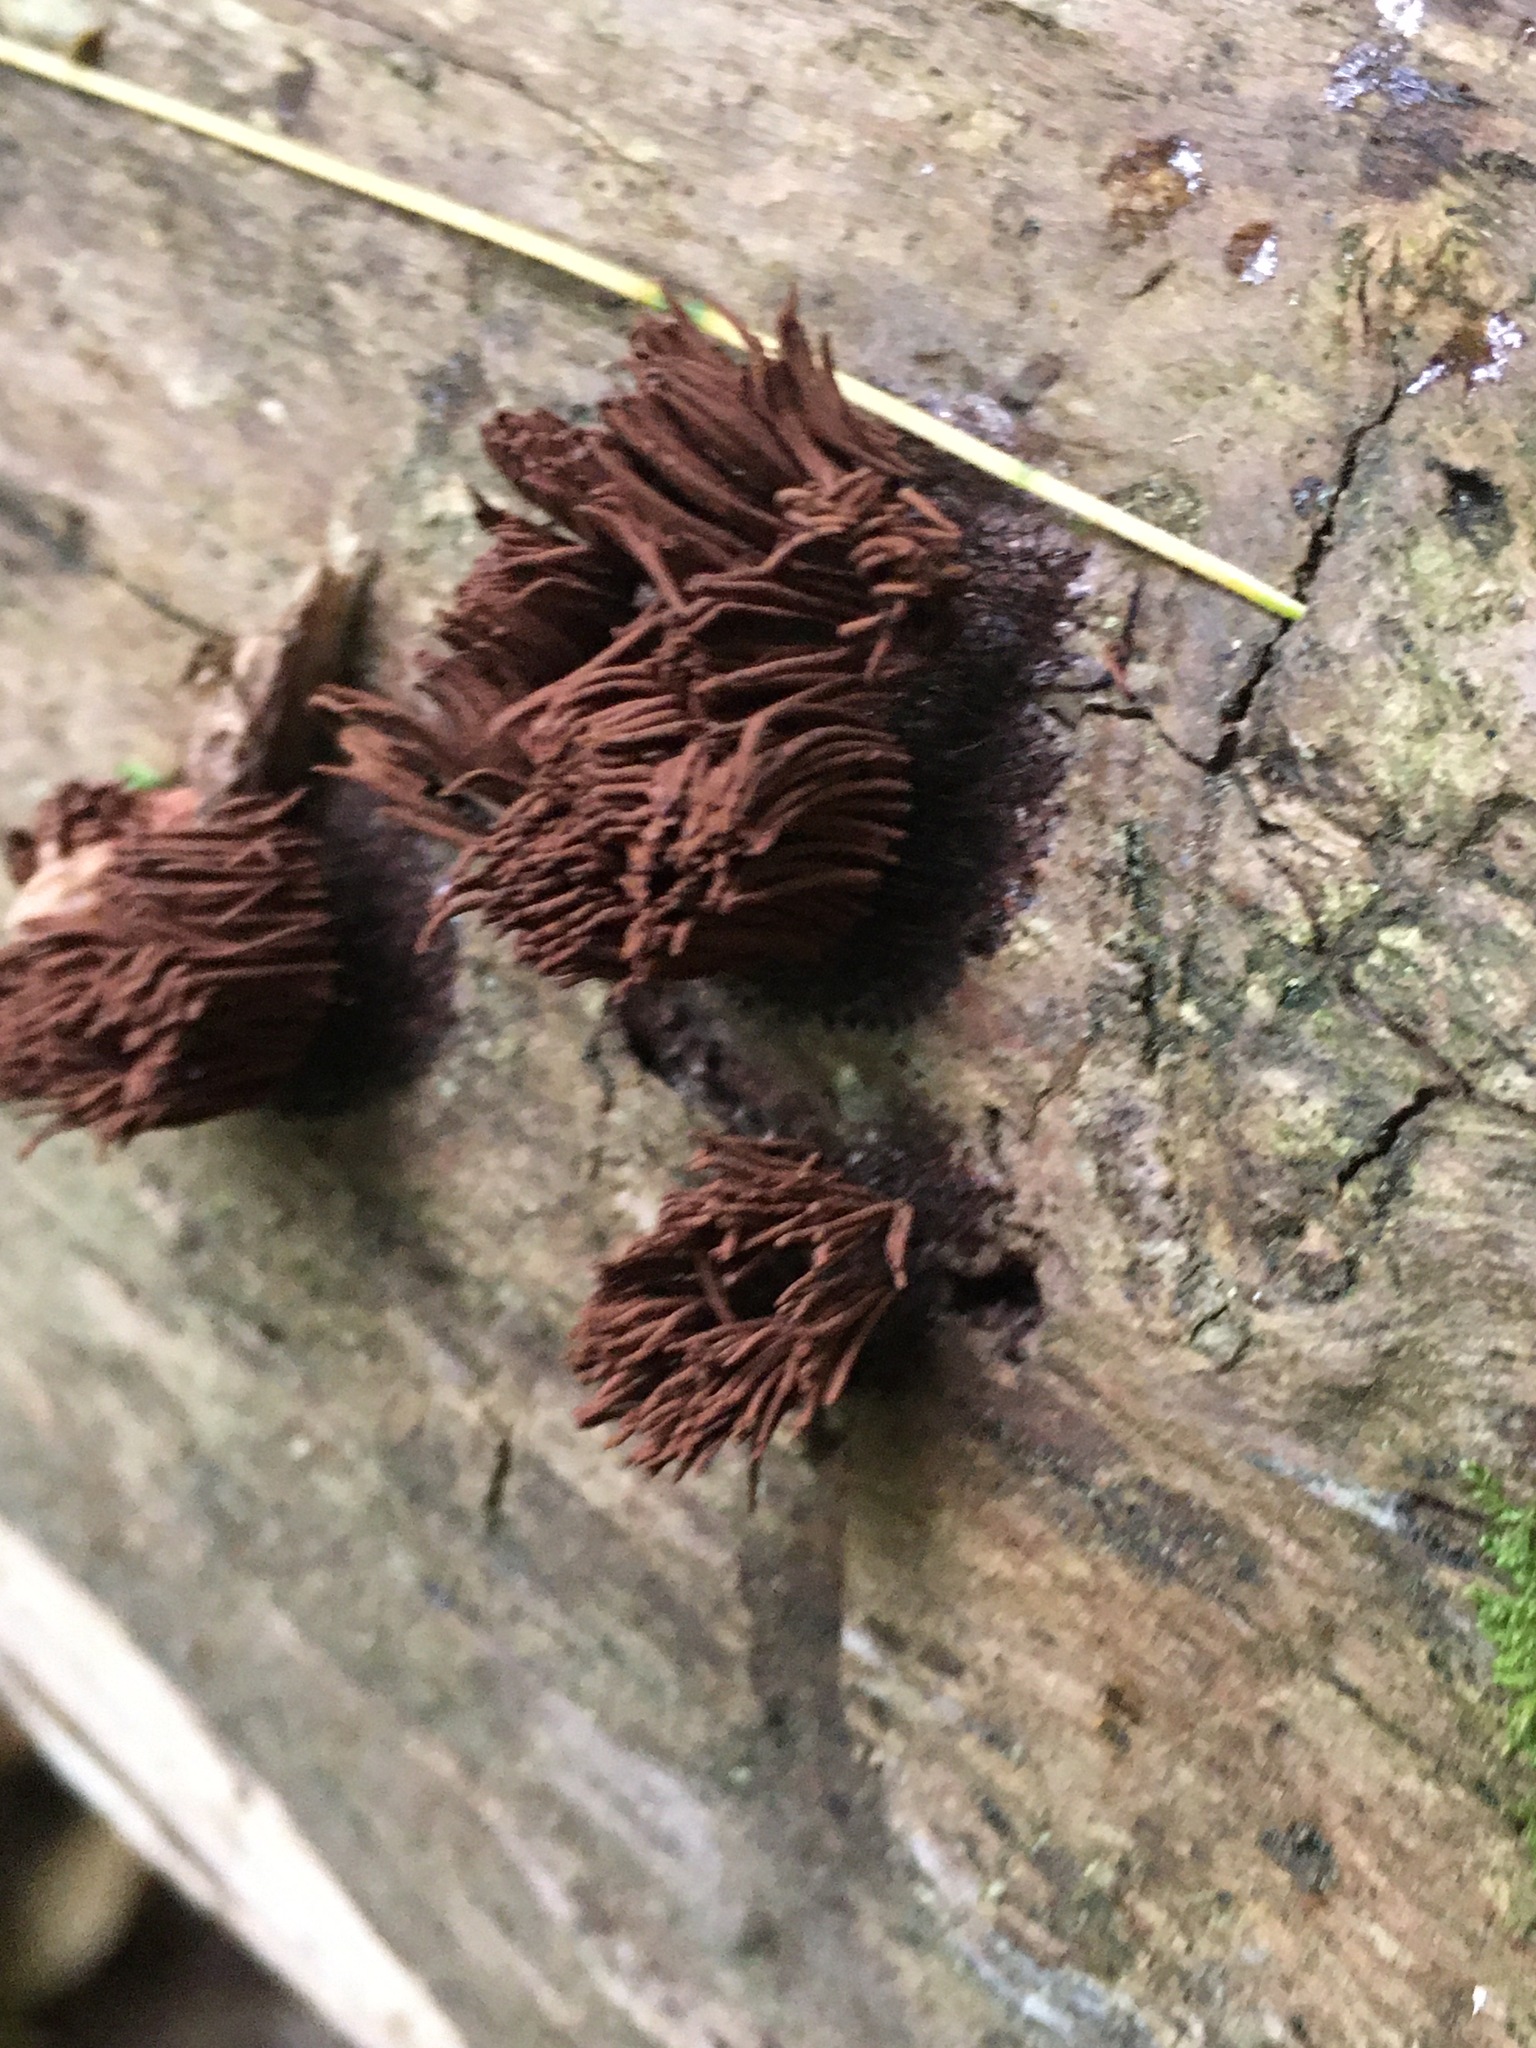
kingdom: Protozoa
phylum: Mycetozoa
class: Myxomycetes
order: Stemonitidales
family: Stemonitidaceae
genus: Stemonitis
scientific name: Stemonitis splendens
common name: Chocolate tube slime
